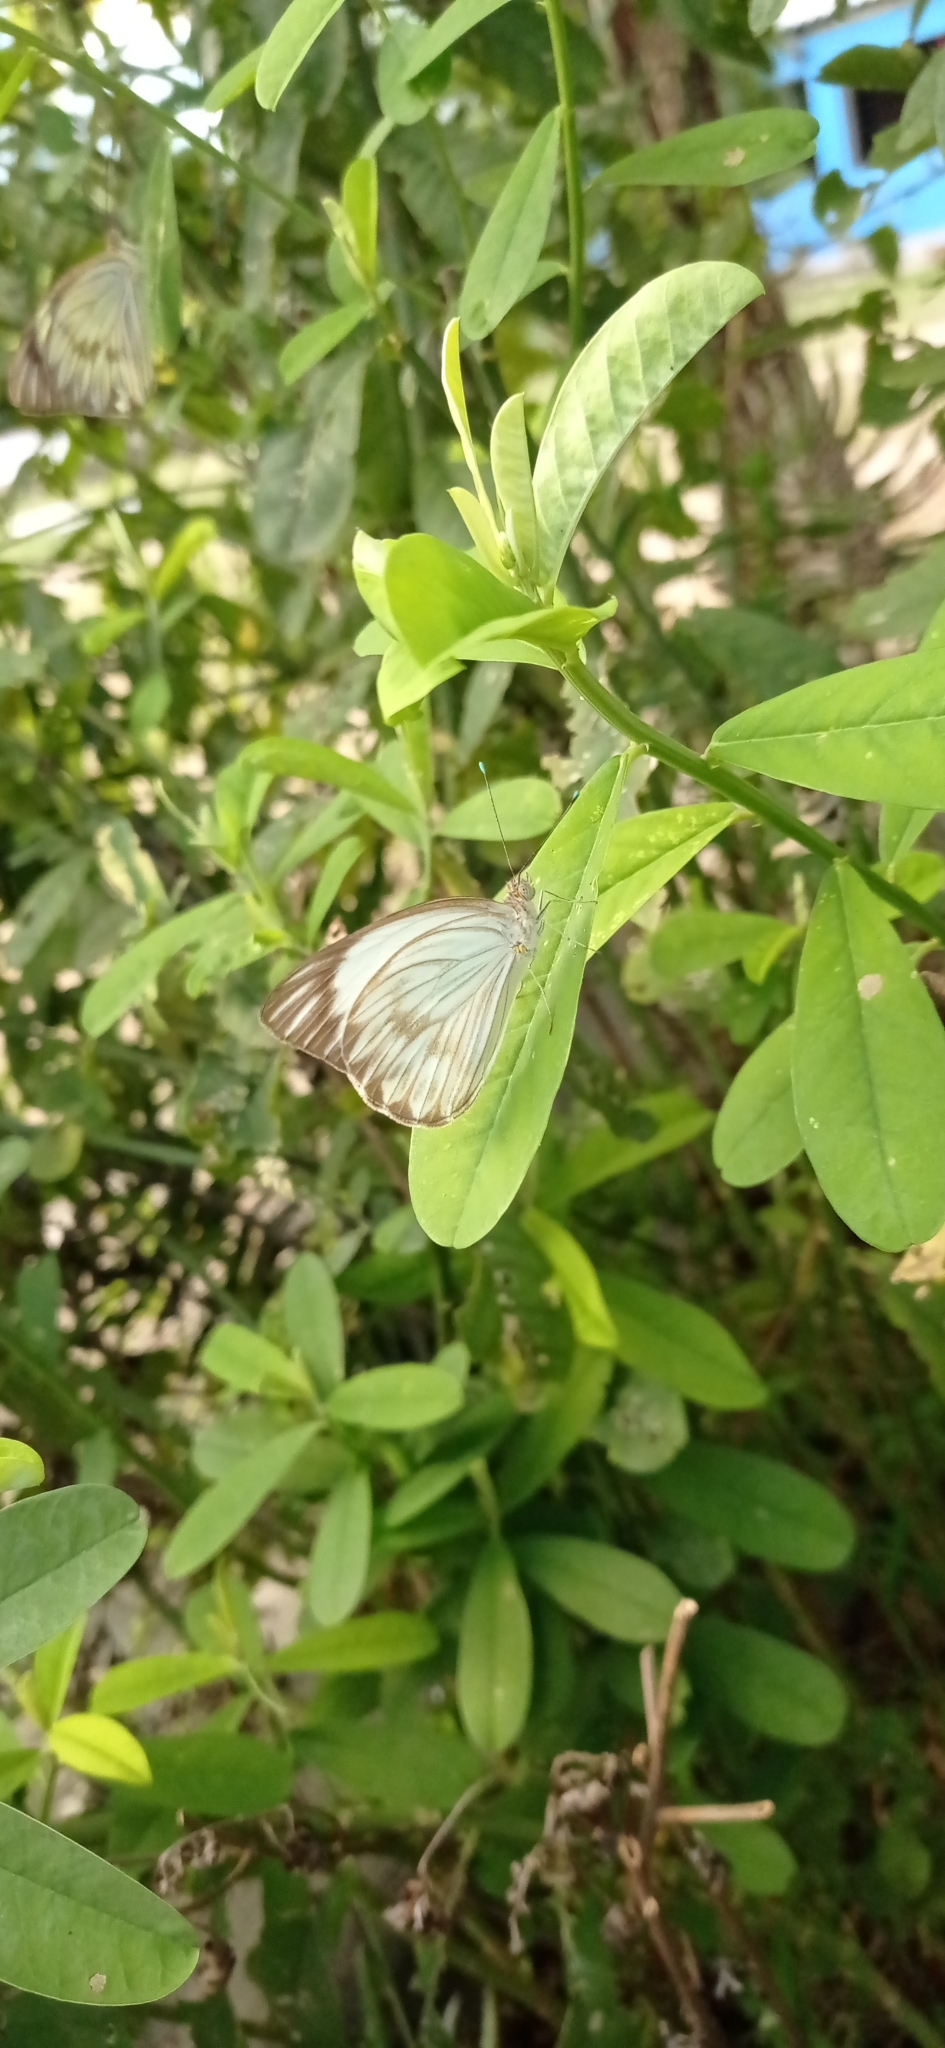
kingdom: Animalia
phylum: Arthropoda
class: Insecta
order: Lepidoptera
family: Pieridae
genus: Ascia
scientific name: Ascia monuste
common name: Great southern white
